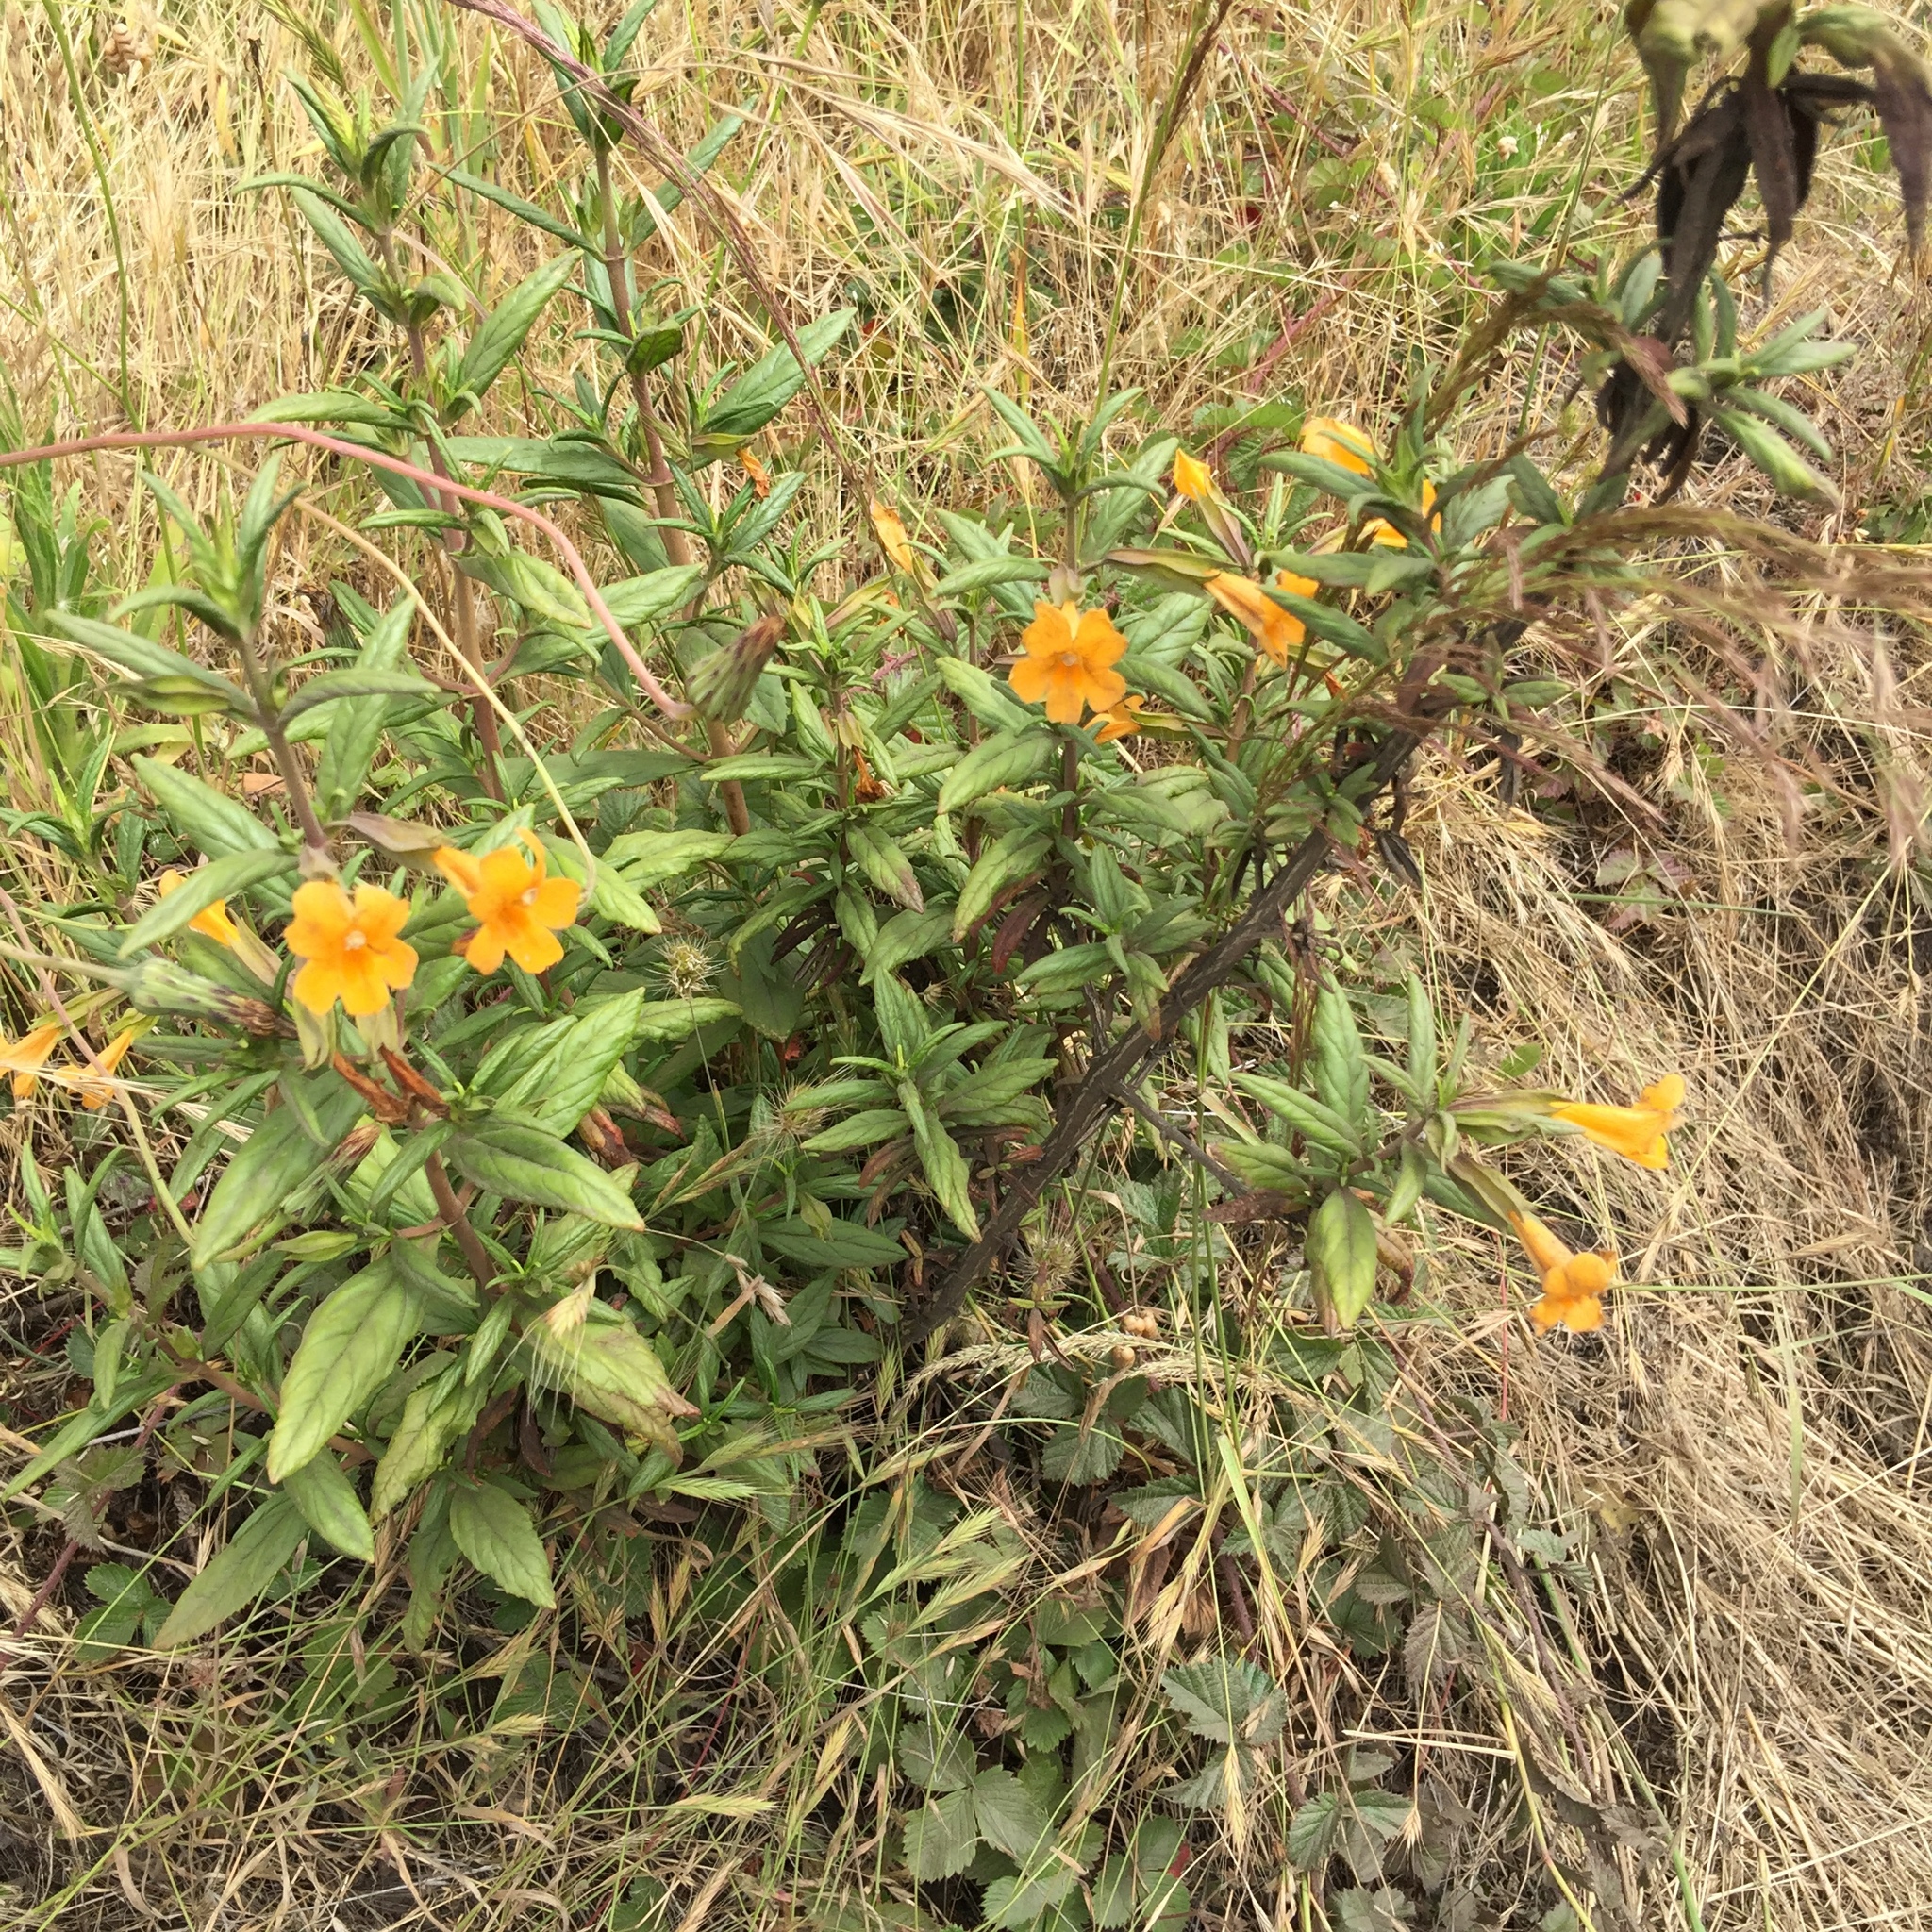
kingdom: Plantae
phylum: Tracheophyta
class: Magnoliopsida
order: Lamiales
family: Phrymaceae
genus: Diplacus
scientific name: Diplacus aurantiacus
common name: Bush monkey-flower
